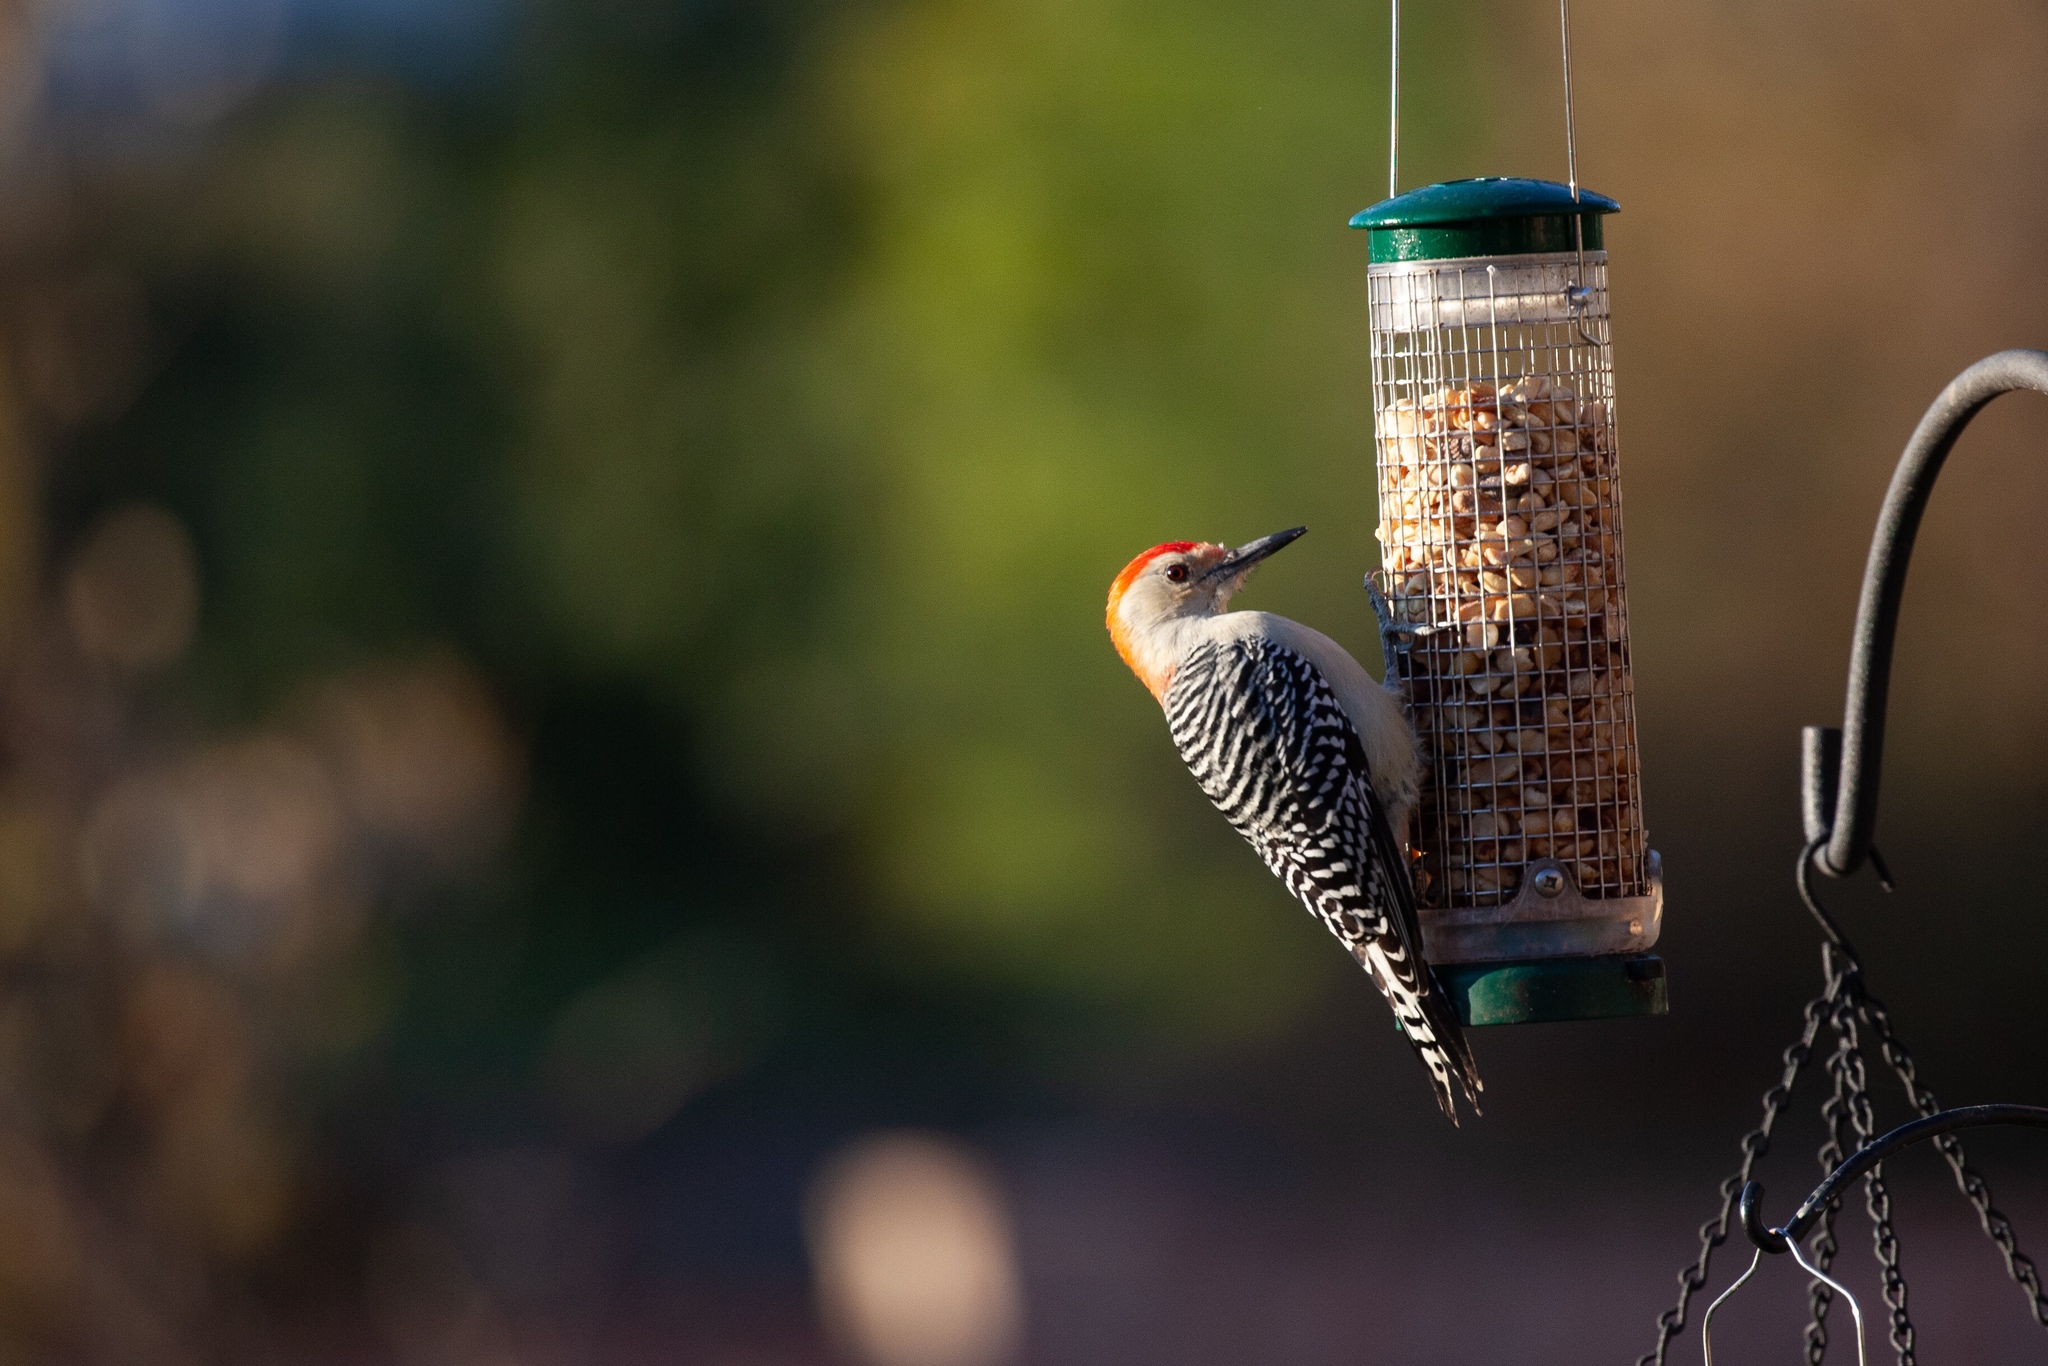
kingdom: Animalia
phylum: Chordata
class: Aves
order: Piciformes
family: Picidae
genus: Melanerpes
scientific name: Melanerpes carolinus
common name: Red-bellied woodpecker
